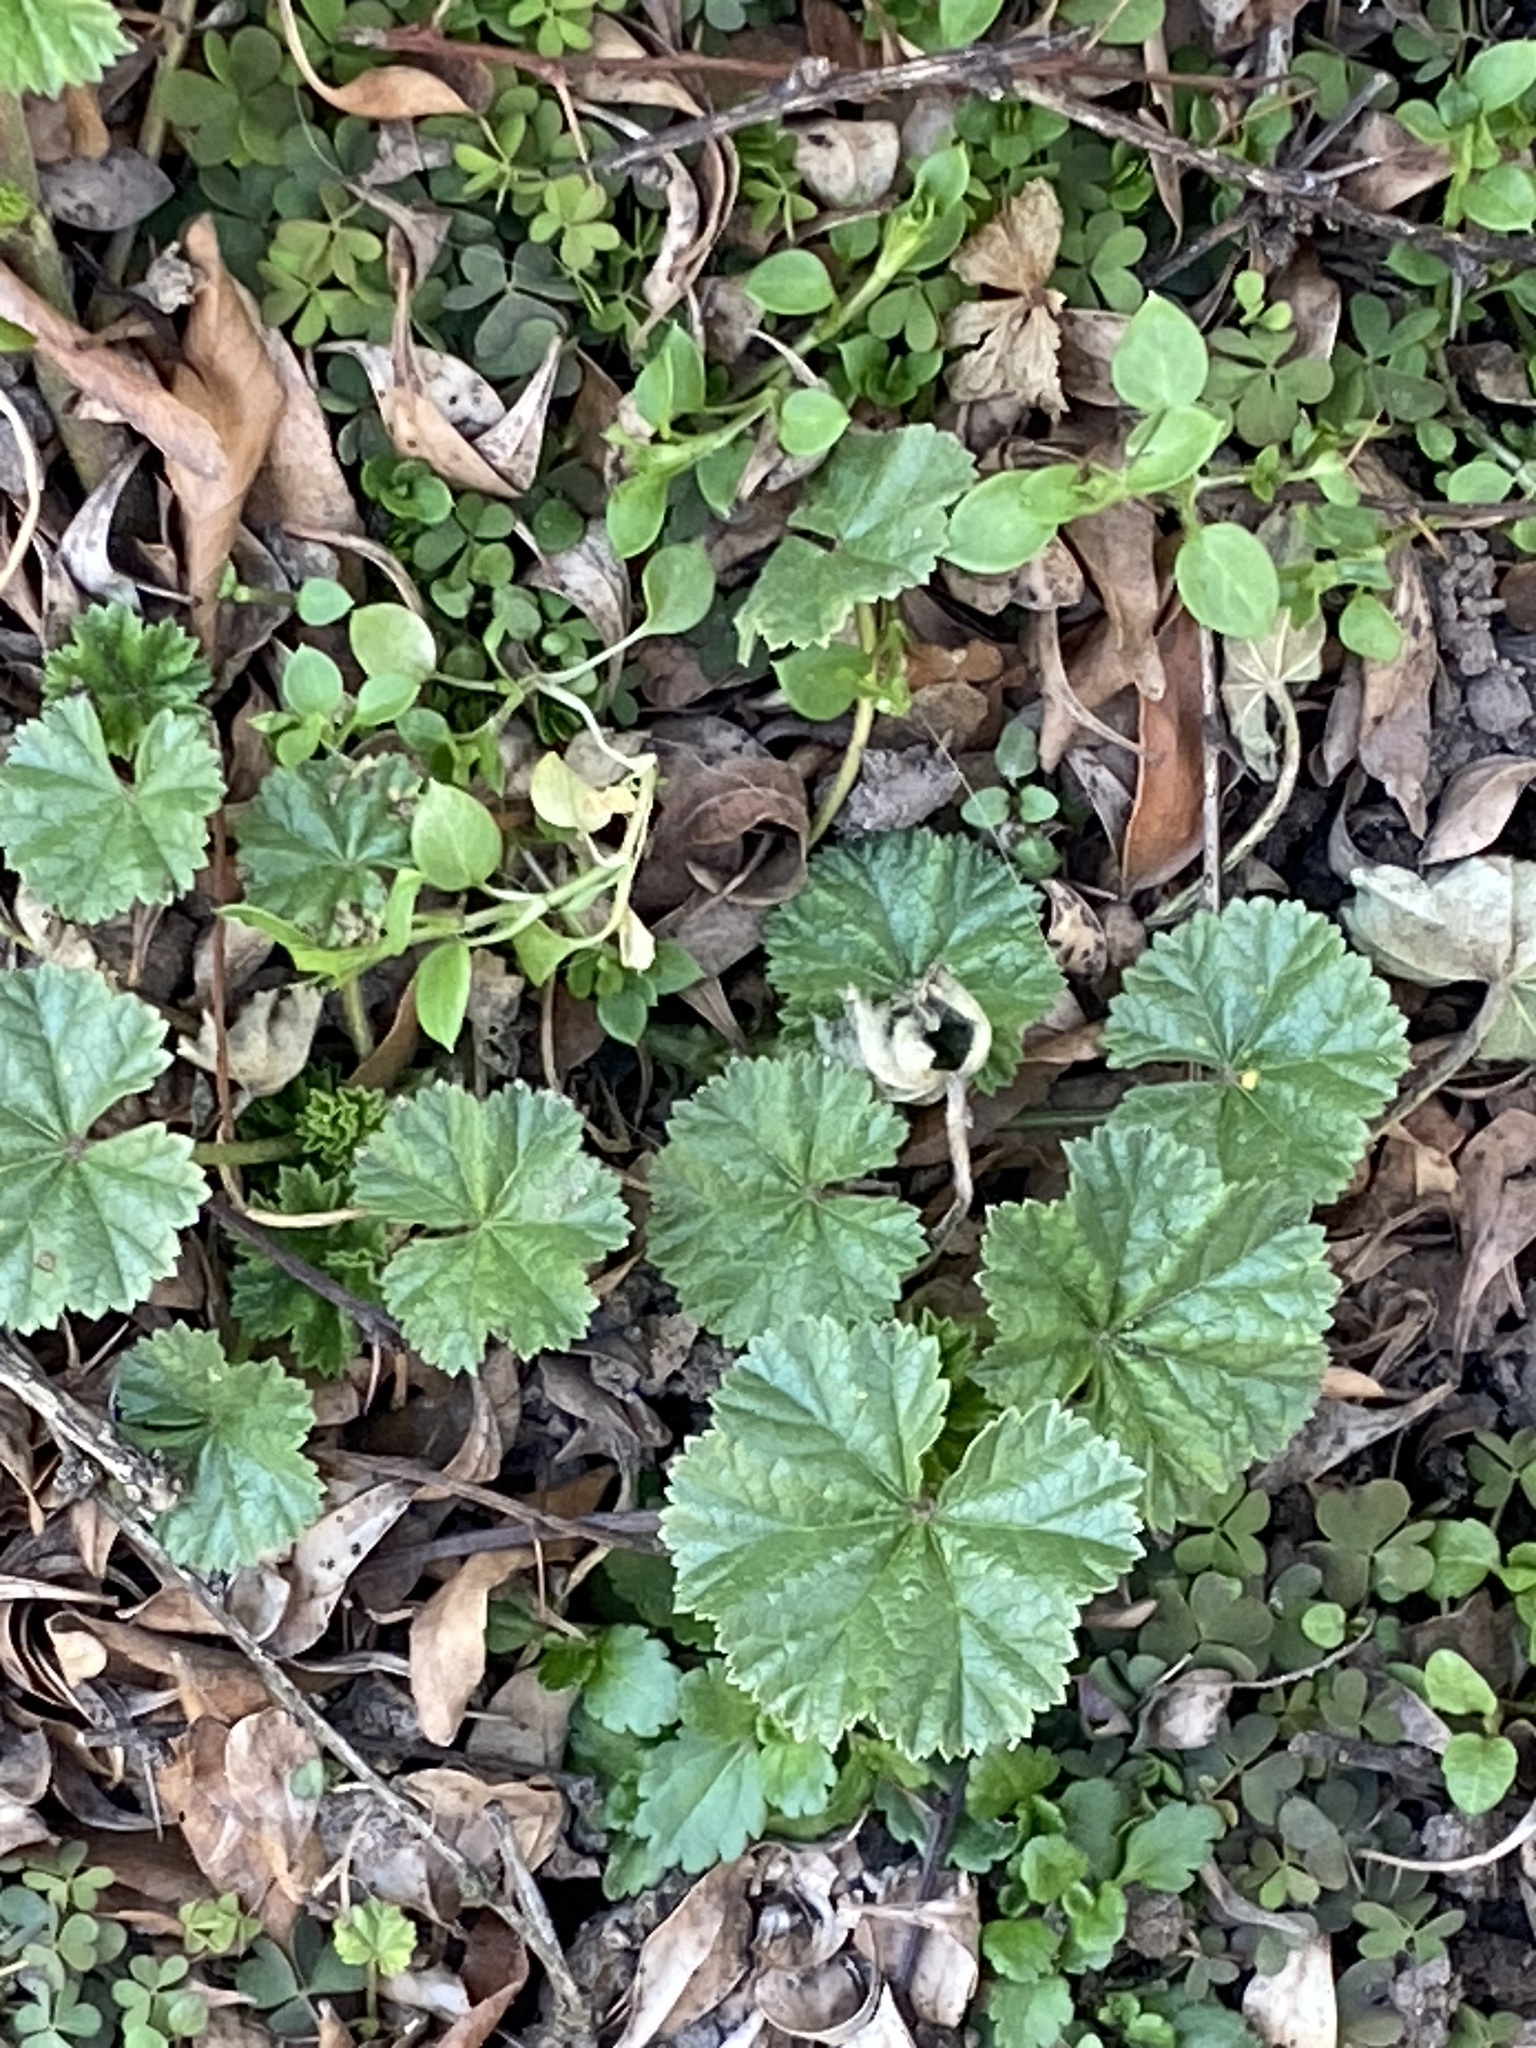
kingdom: Plantae
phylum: Tracheophyta
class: Magnoliopsida
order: Malvales
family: Malvaceae
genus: Malva
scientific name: Malva neglecta
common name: Common mallow
